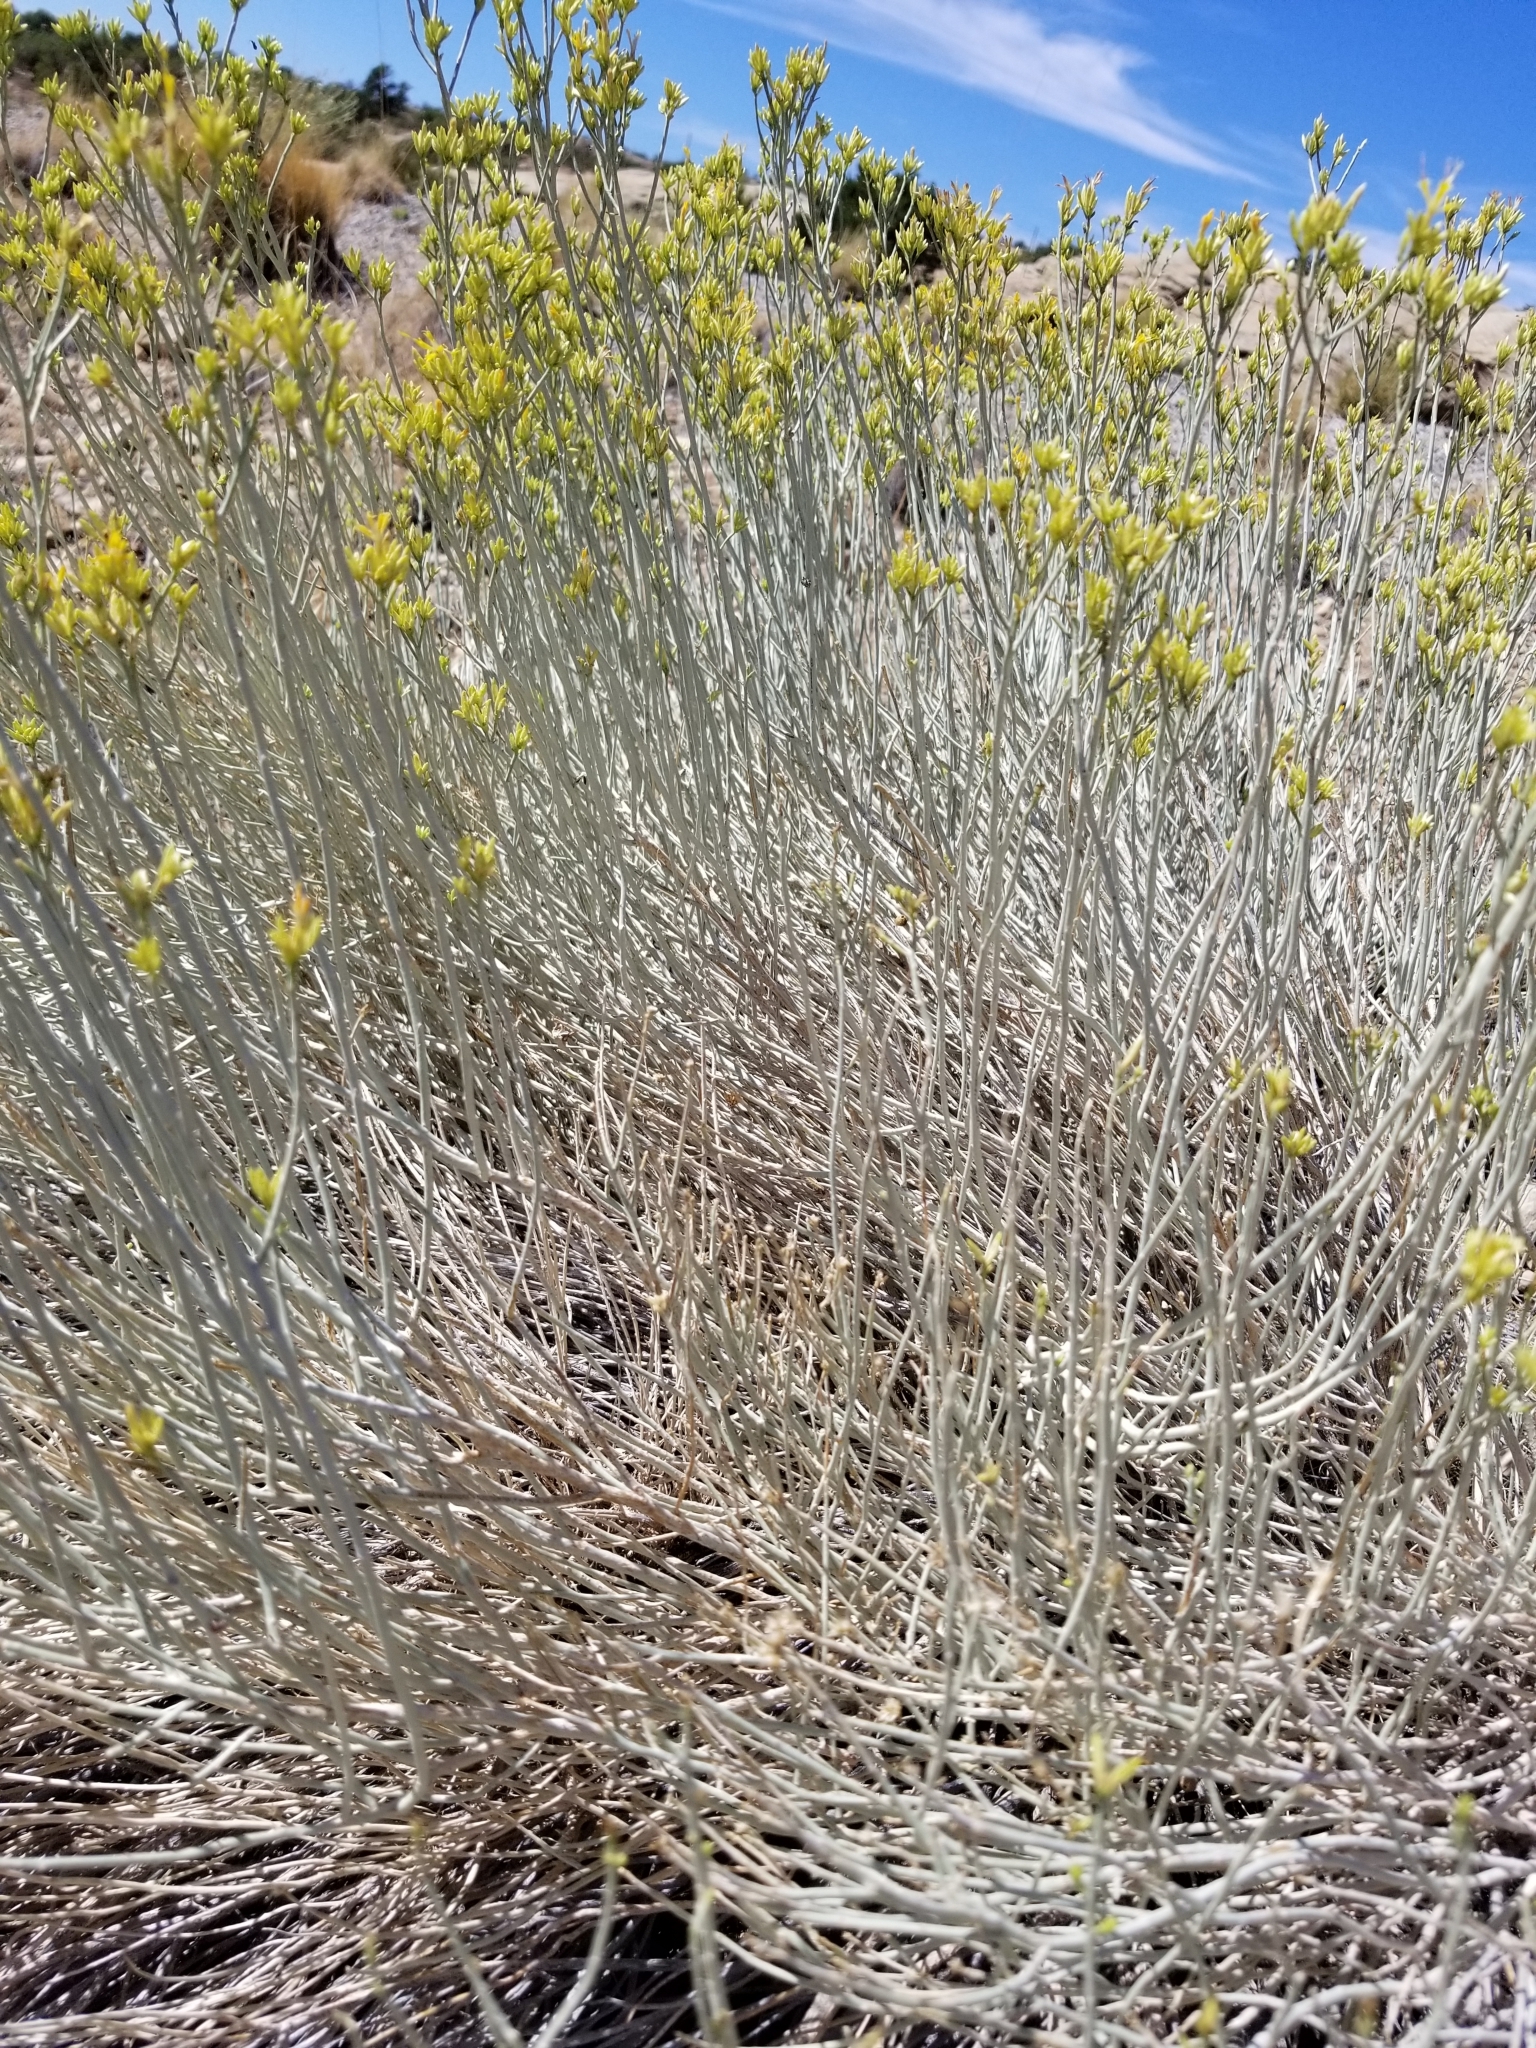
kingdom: Plantae
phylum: Tracheophyta
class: Magnoliopsida
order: Asterales
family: Asteraceae
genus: Ericameria
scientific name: Ericameria nauseosa
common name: Rubber rabbitbrush
